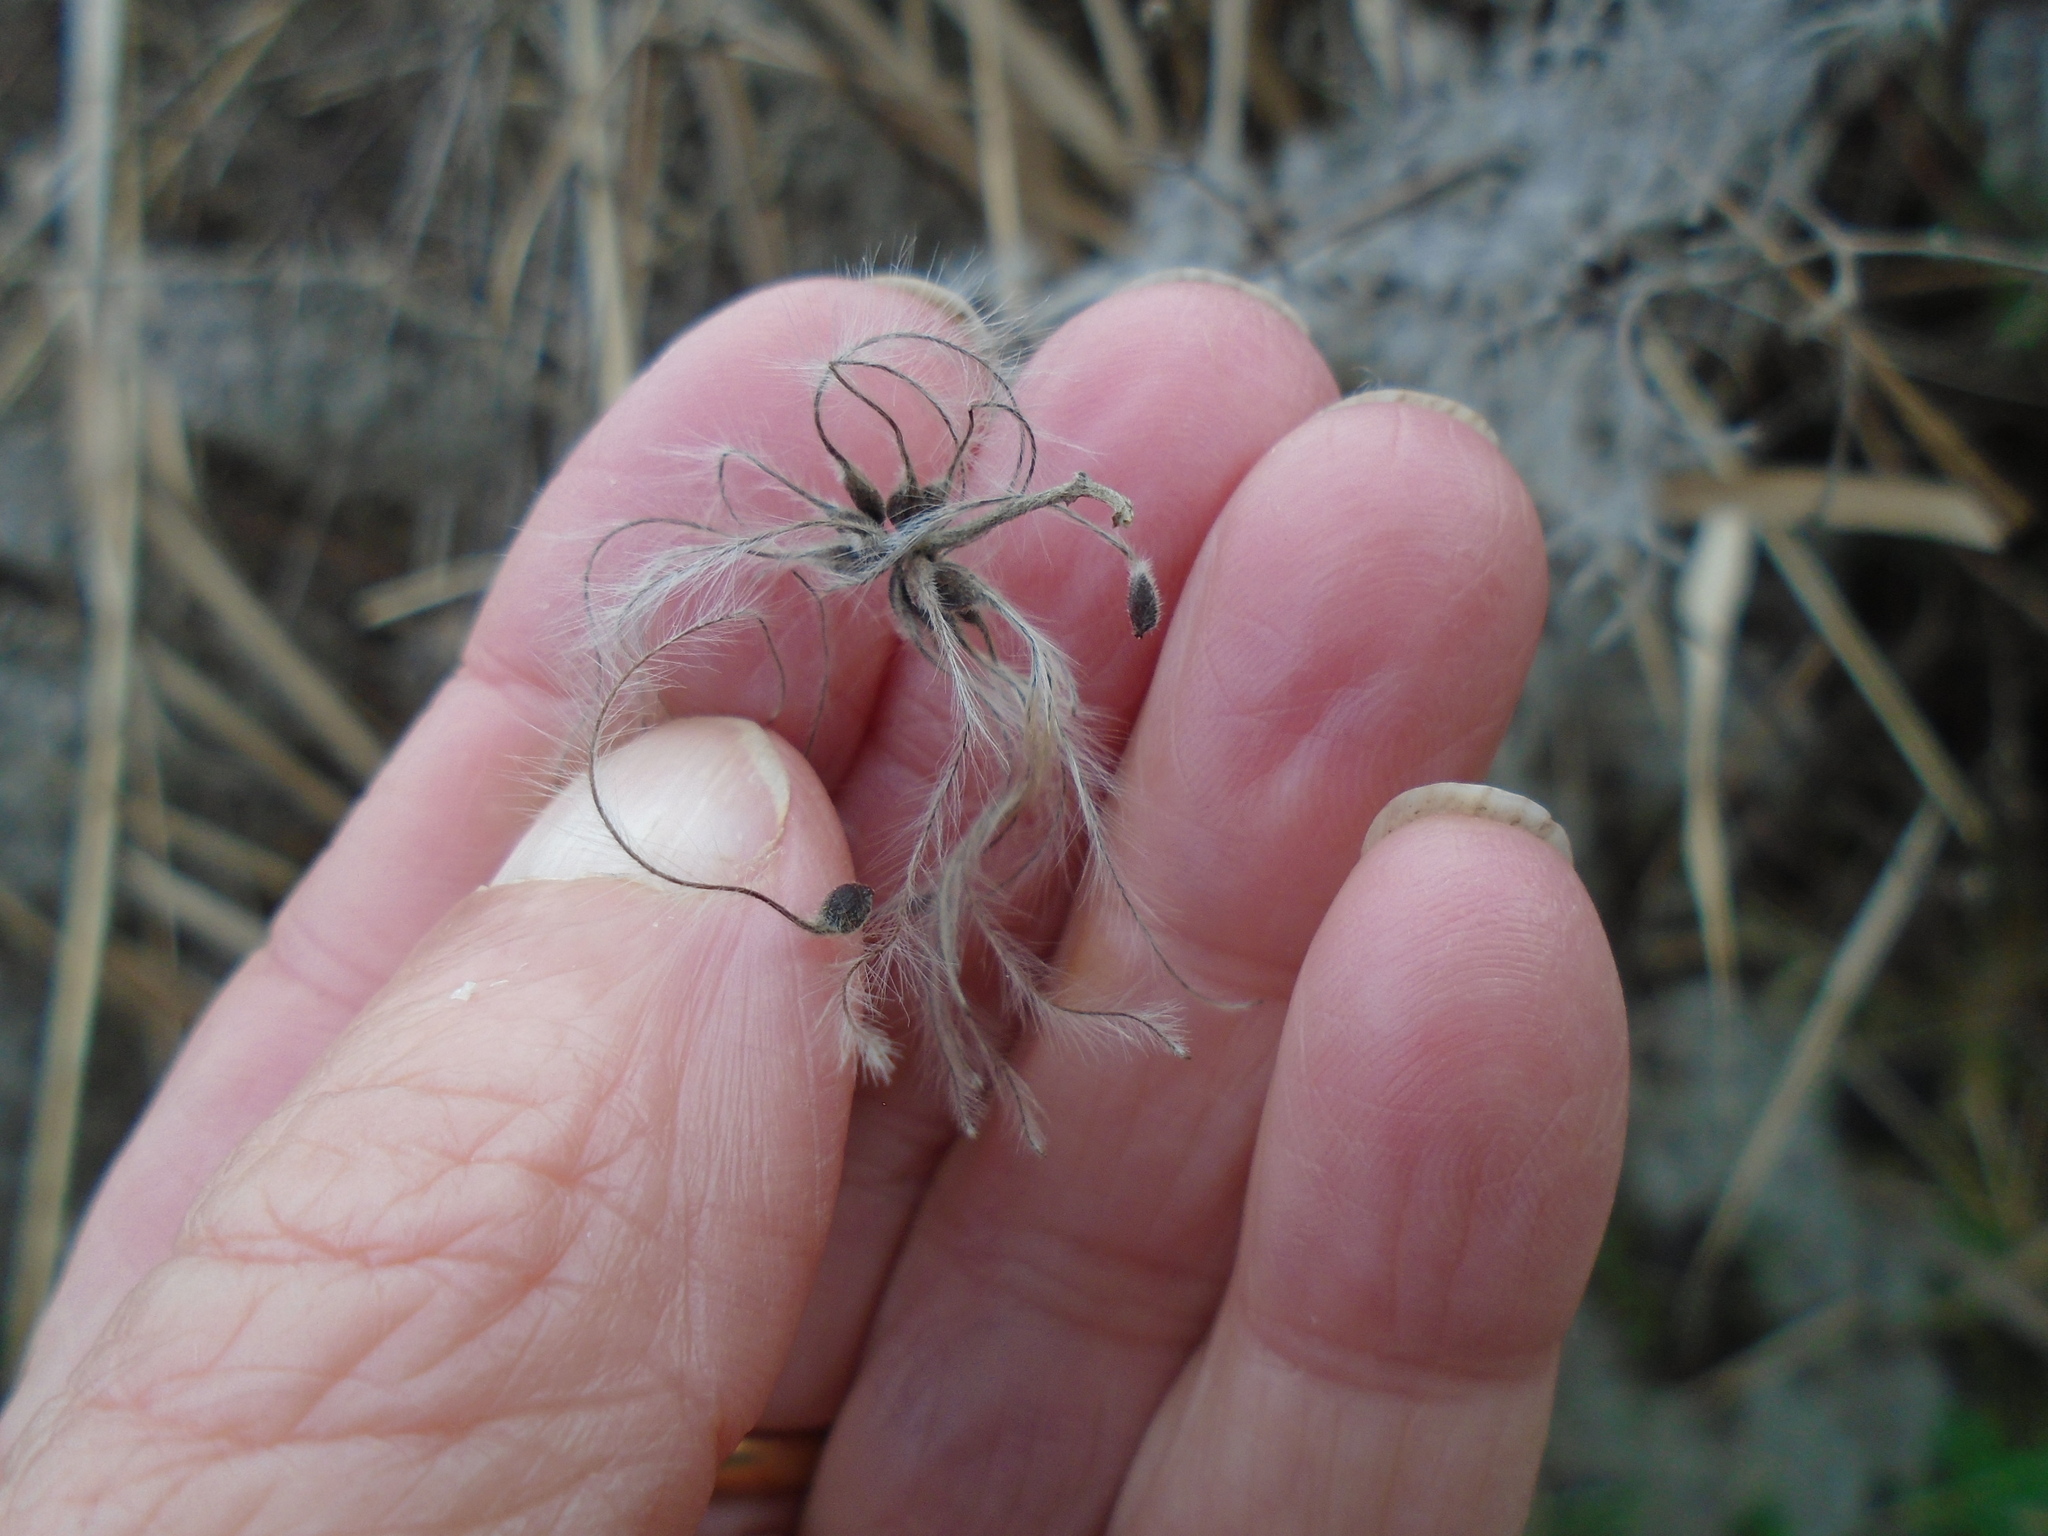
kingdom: Plantae
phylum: Tracheophyta
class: Magnoliopsida
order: Ranunculales
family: Ranunculaceae
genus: Clematis
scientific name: Clematis vitalba
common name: Evergreen clematis
